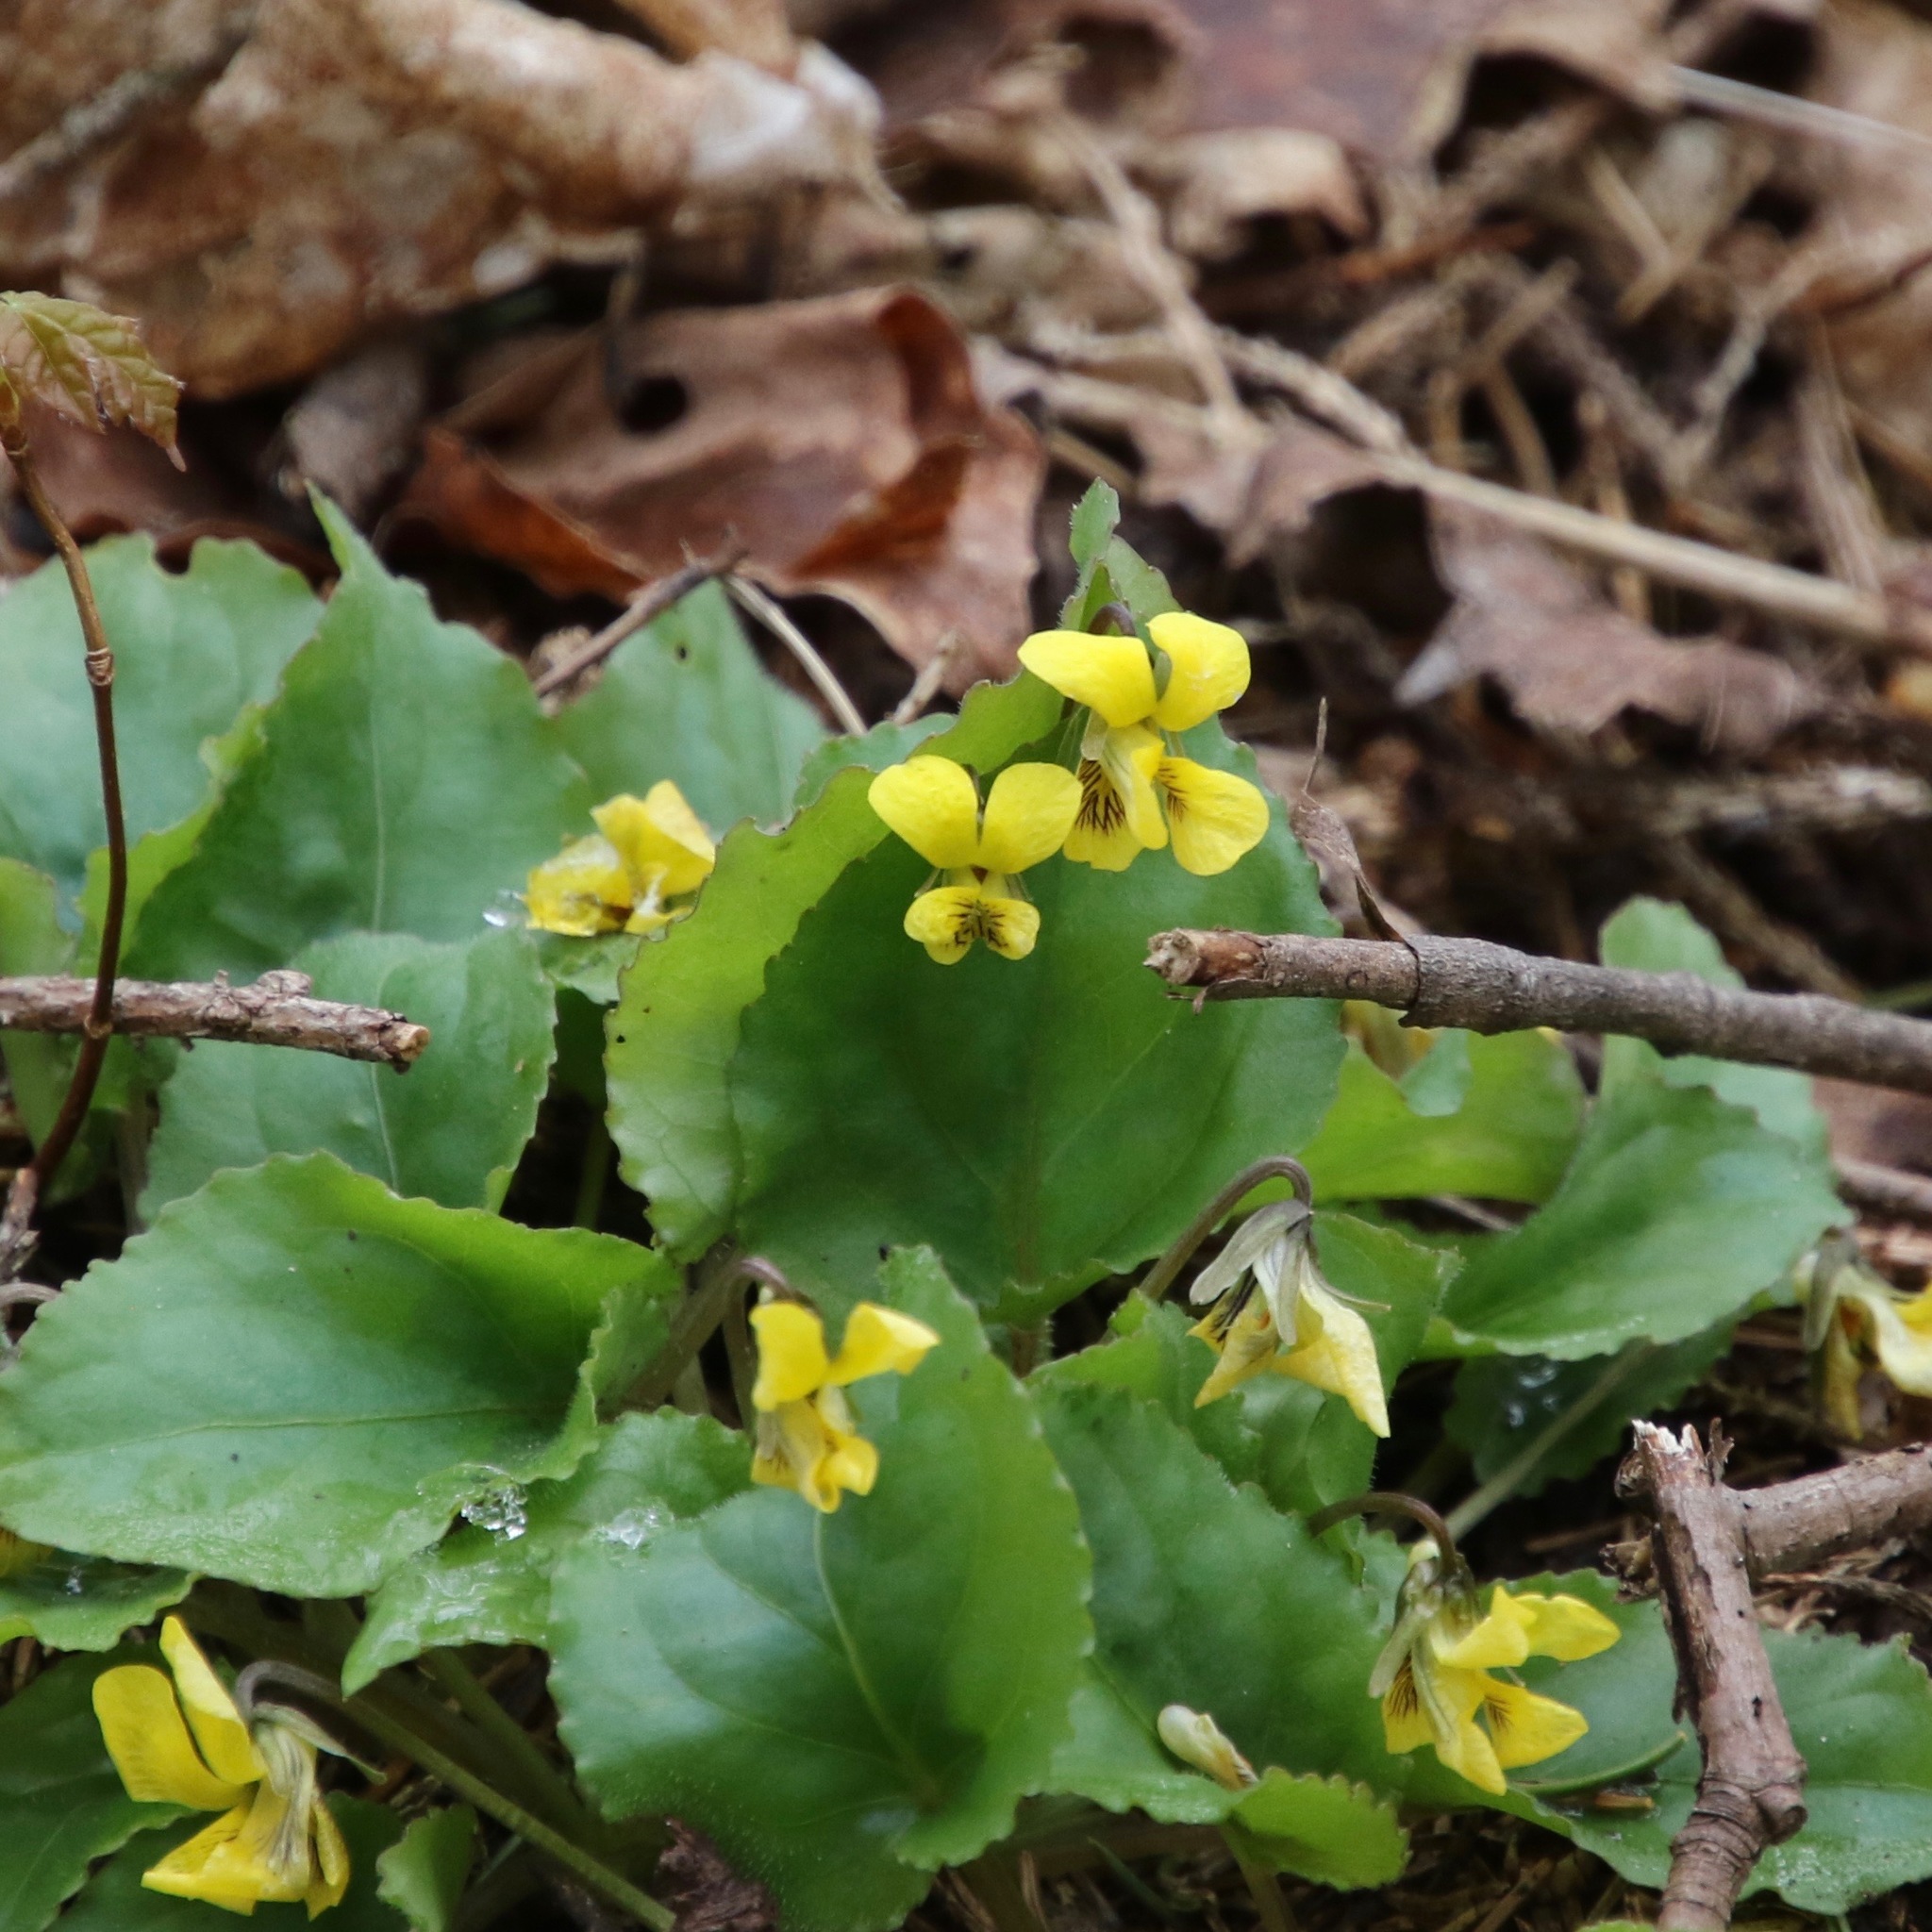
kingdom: Plantae
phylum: Tracheophyta
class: Magnoliopsida
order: Malpighiales
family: Violaceae
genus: Viola
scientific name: Viola rotundifolia
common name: Early yellow violet
